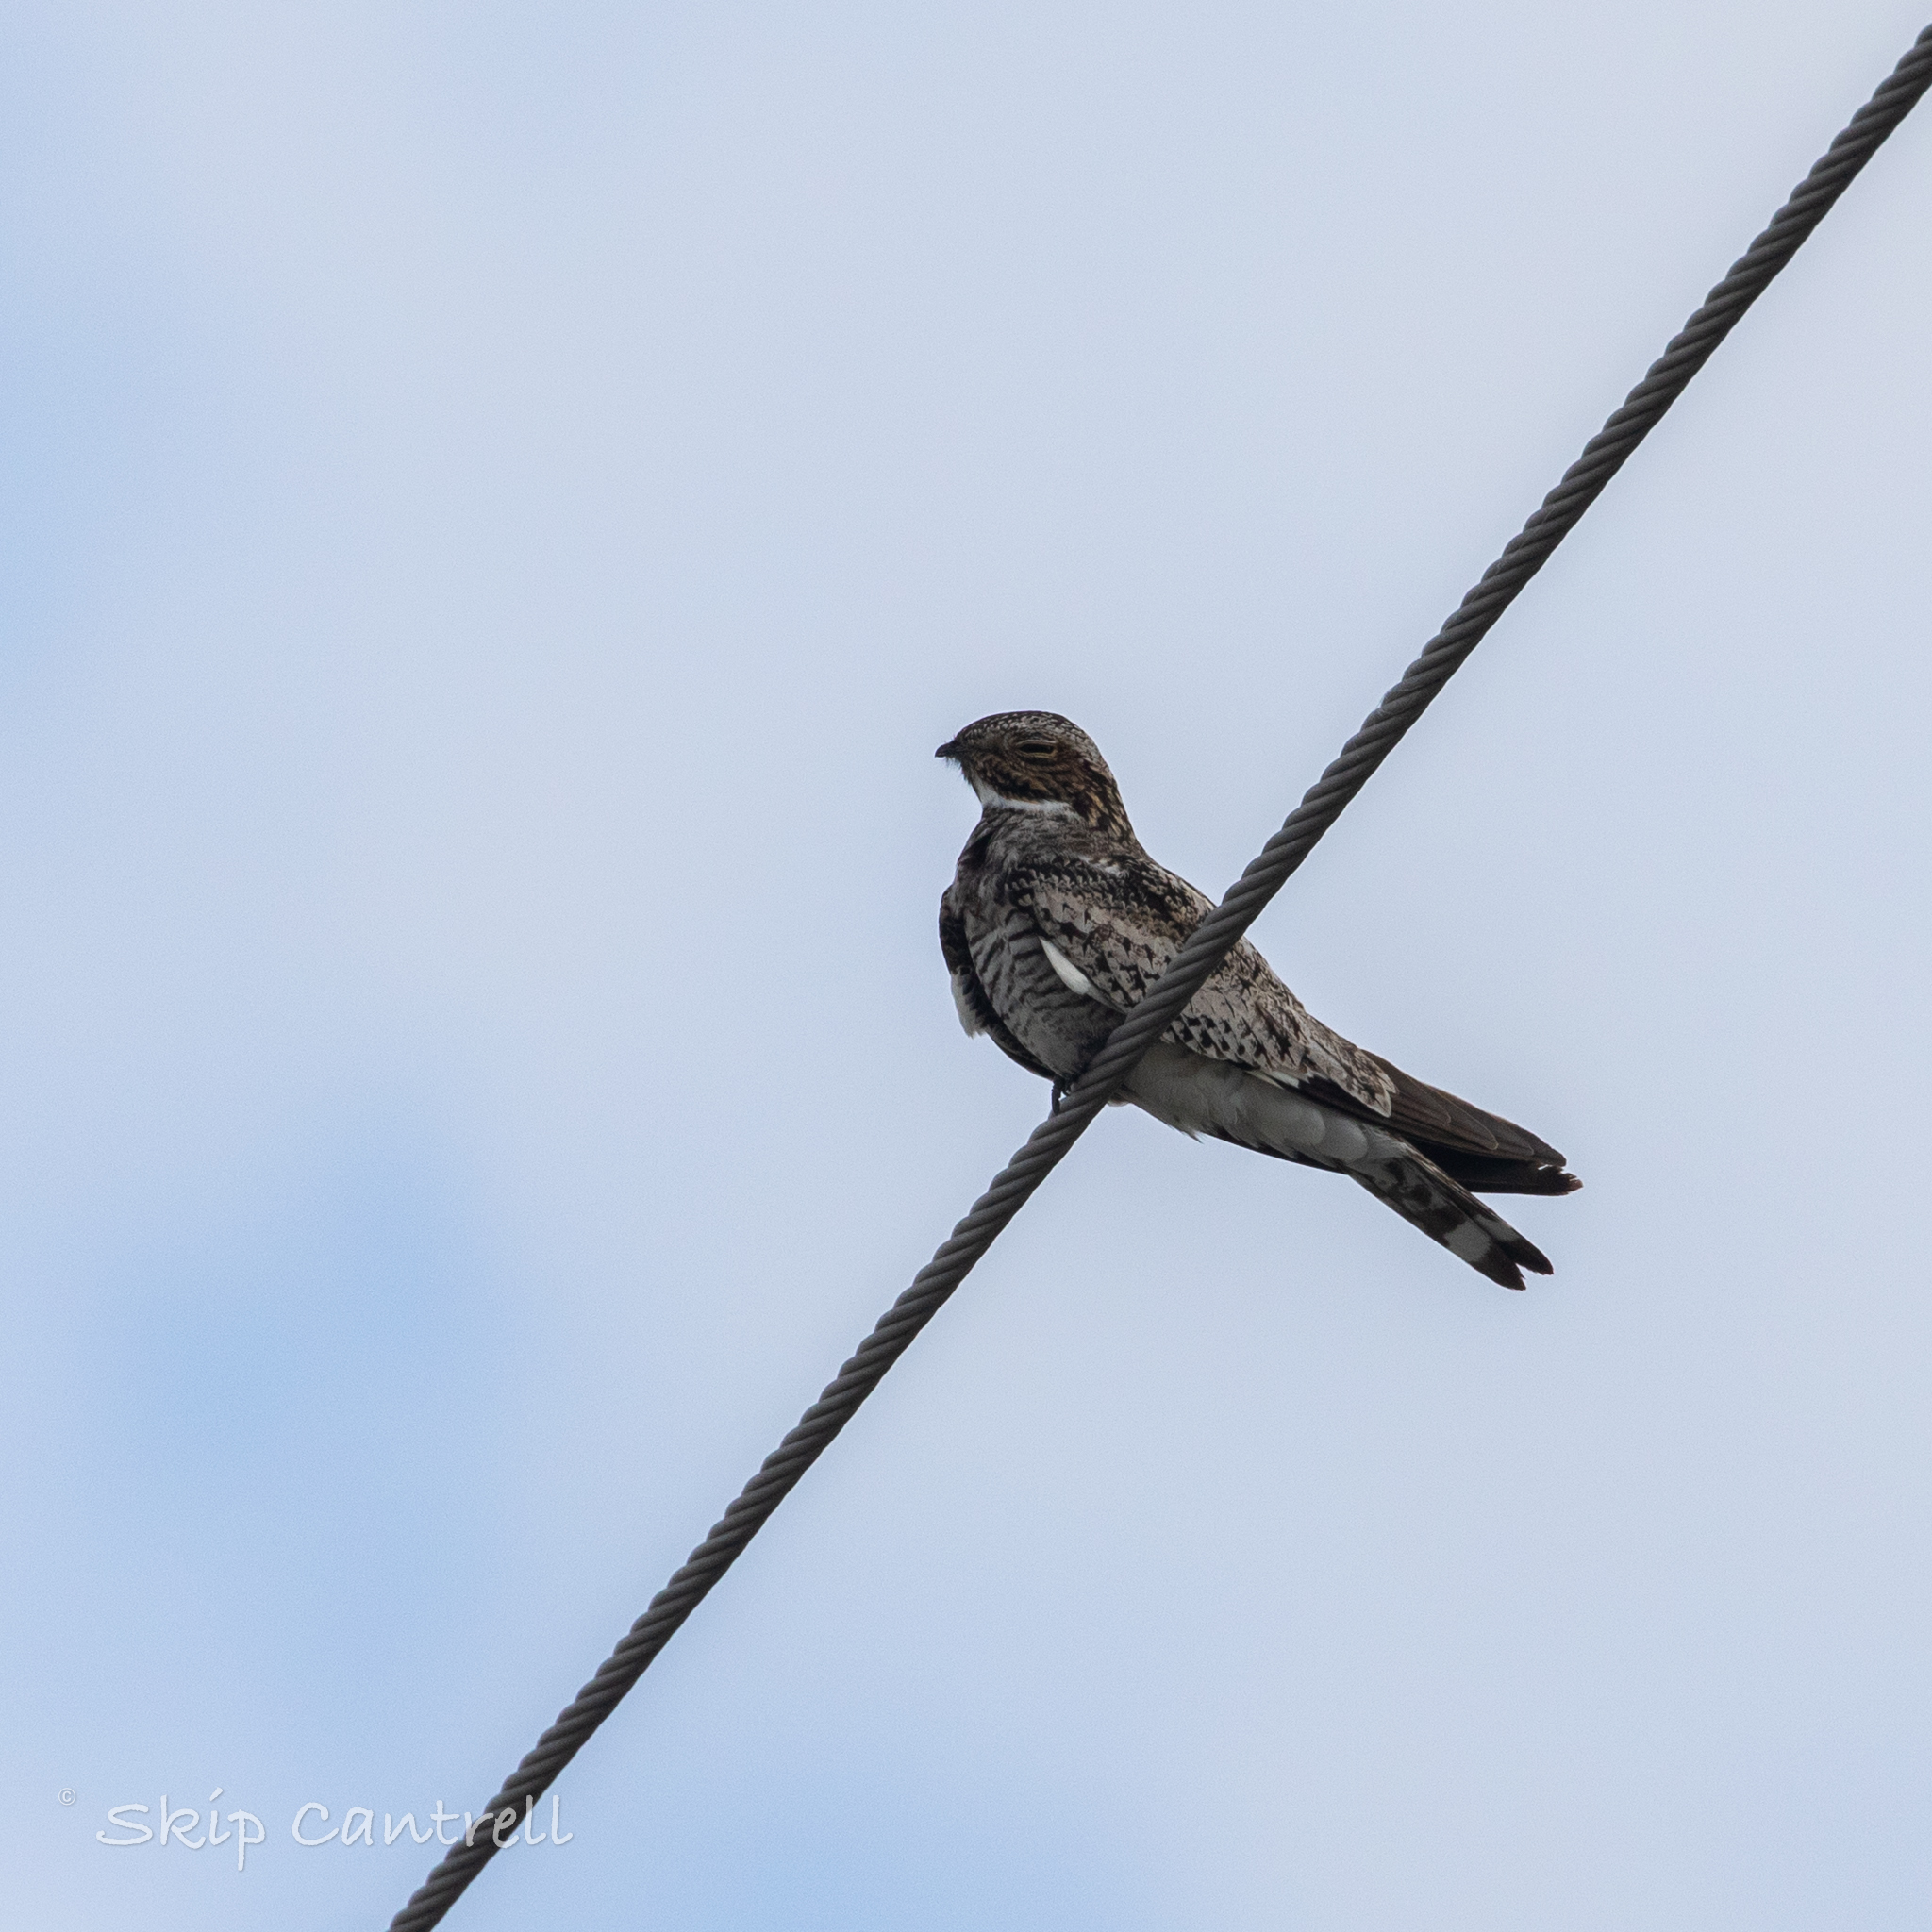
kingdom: Animalia
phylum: Chordata
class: Aves
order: Caprimulgiformes
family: Caprimulgidae
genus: Chordeiles
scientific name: Chordeiles minor
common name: Common nighthawk
